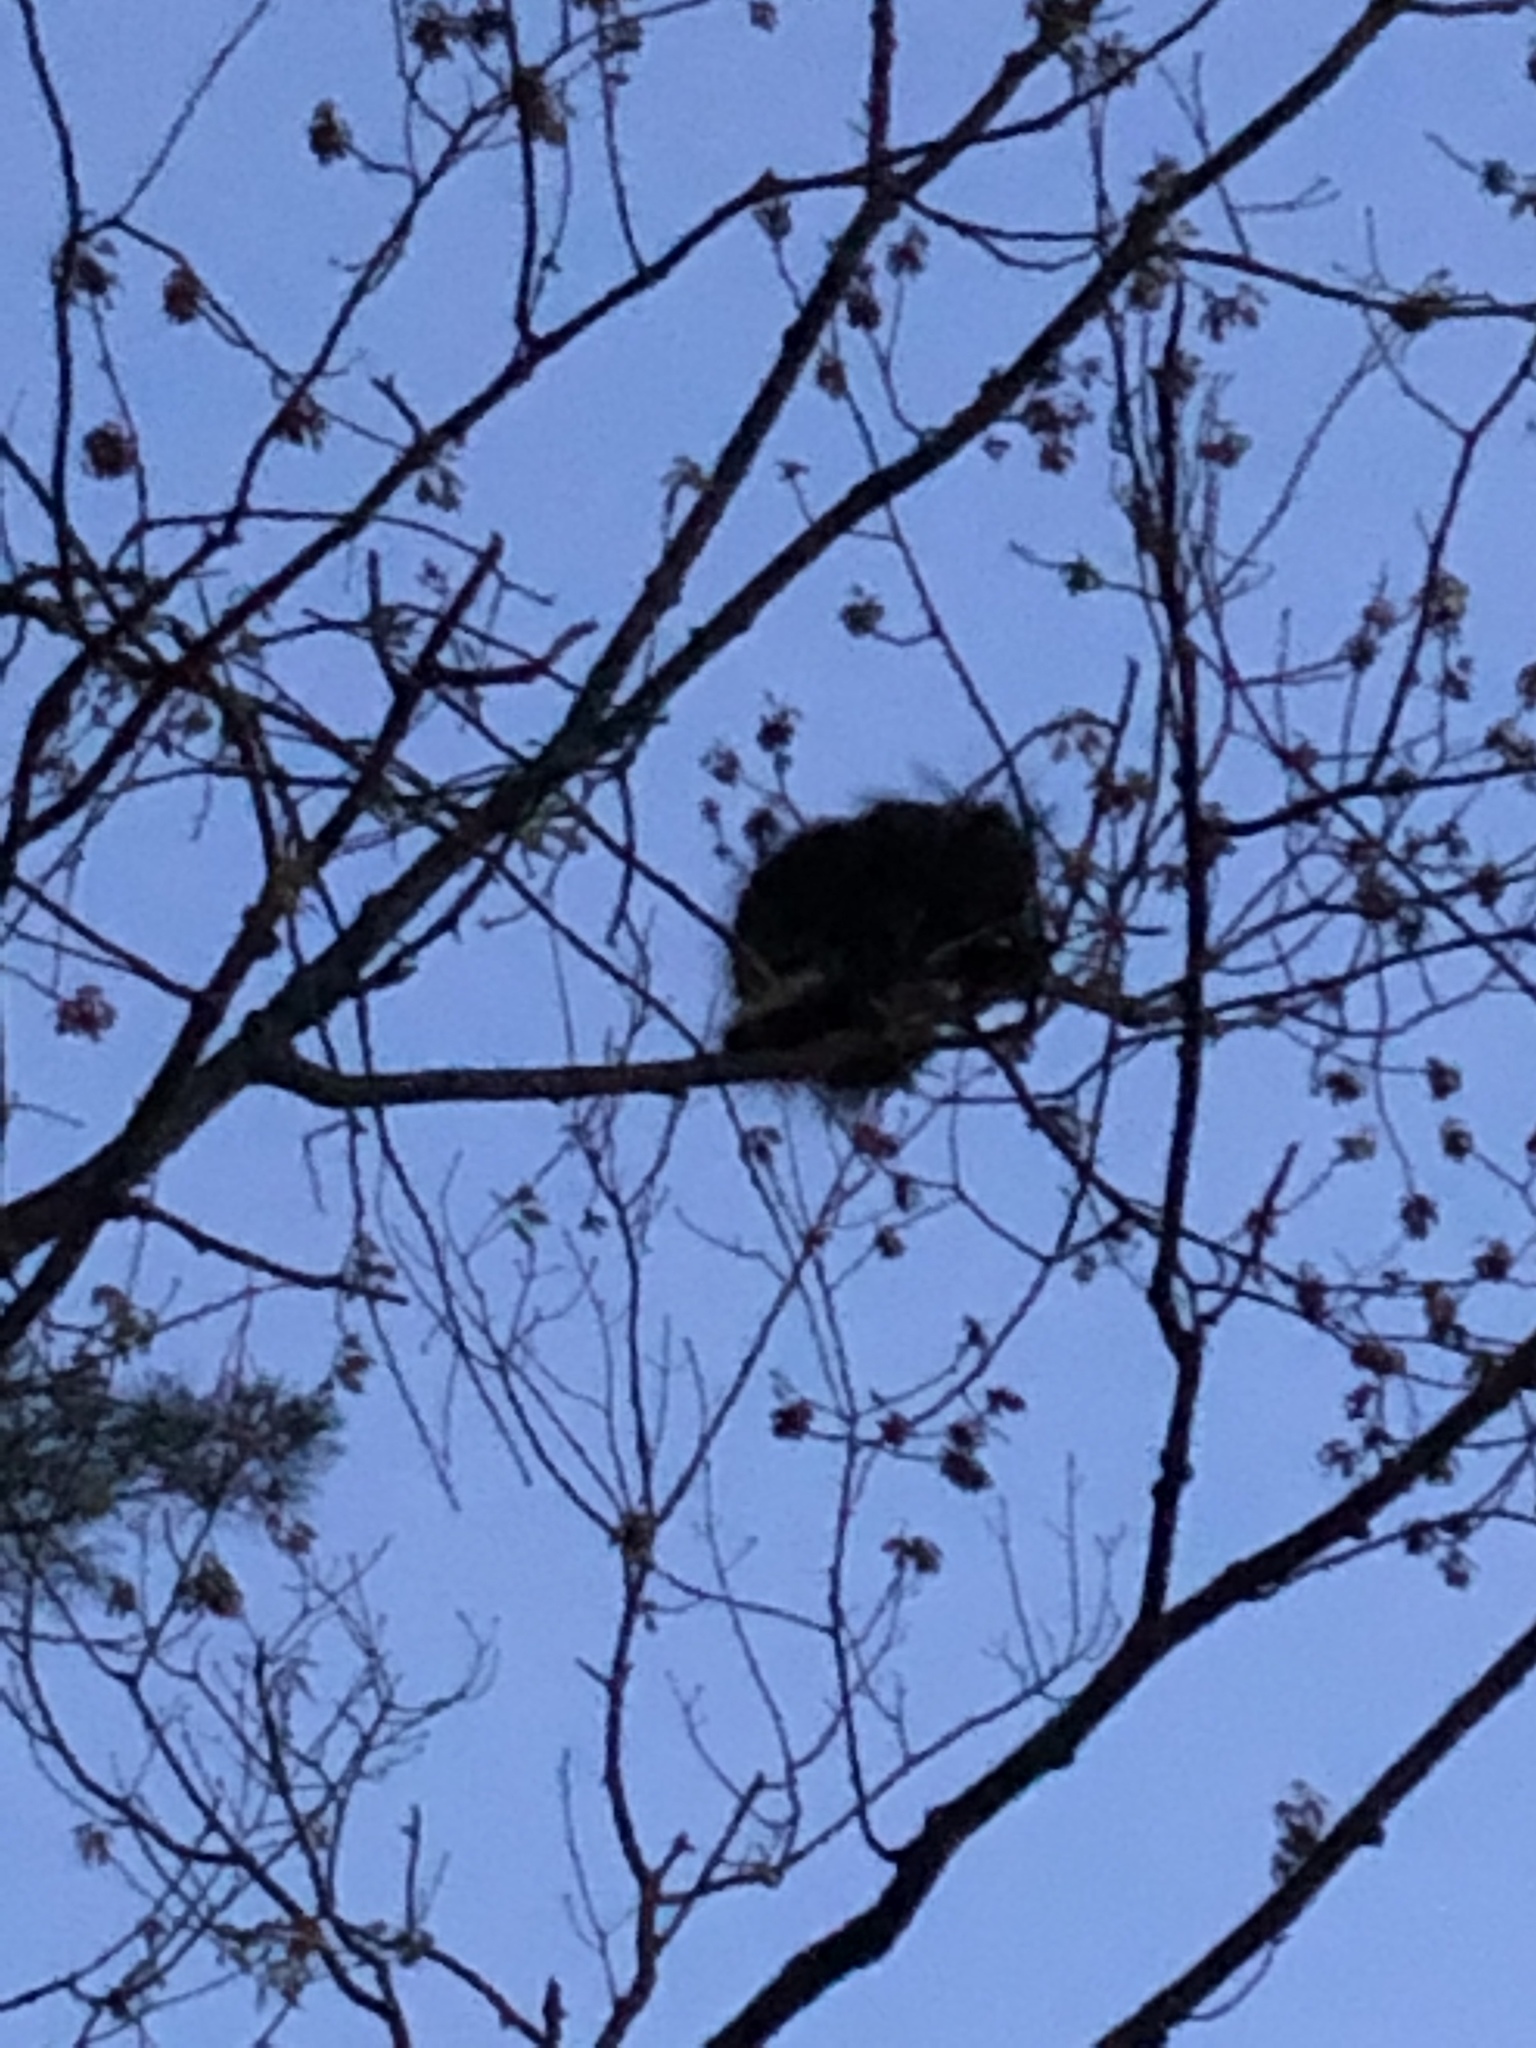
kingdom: Animalia
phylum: Chordata
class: Mammalia
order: Rodentia
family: Erethizontidae
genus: Erethizon
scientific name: Erethizon dorsatus
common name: North american porcupine
